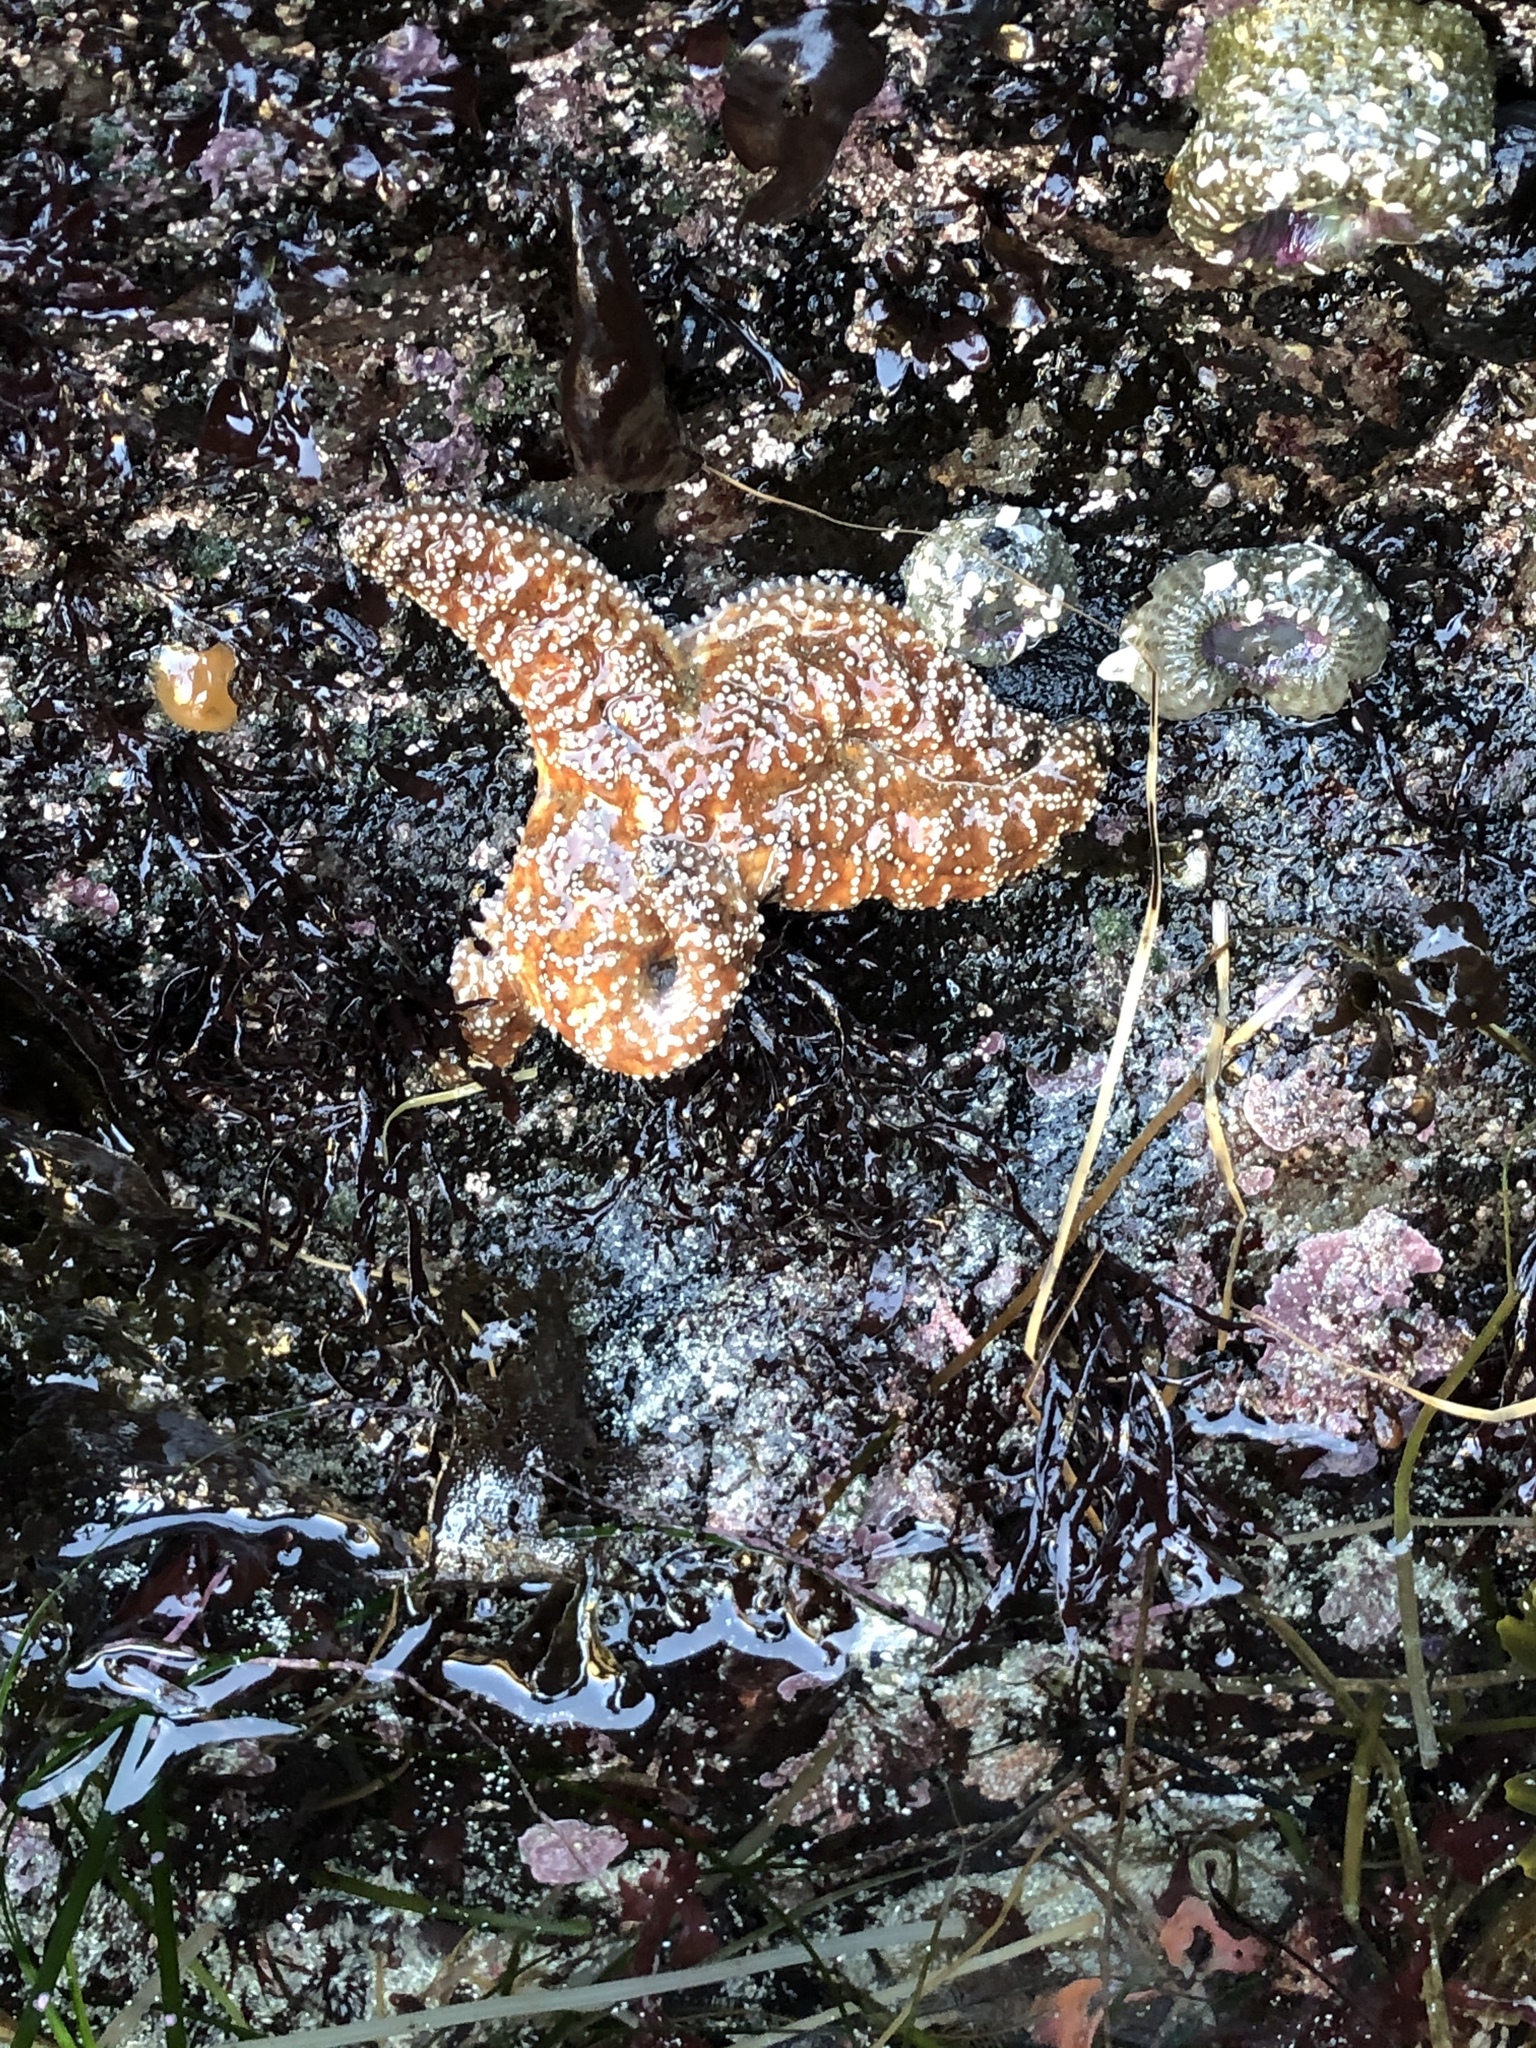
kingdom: Animalia
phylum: Echinodermata
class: Asteroidea
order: Forcipulatida
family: Asteriidae
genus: Pisaster
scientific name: Pisaster ochraceus
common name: Ochre stars
